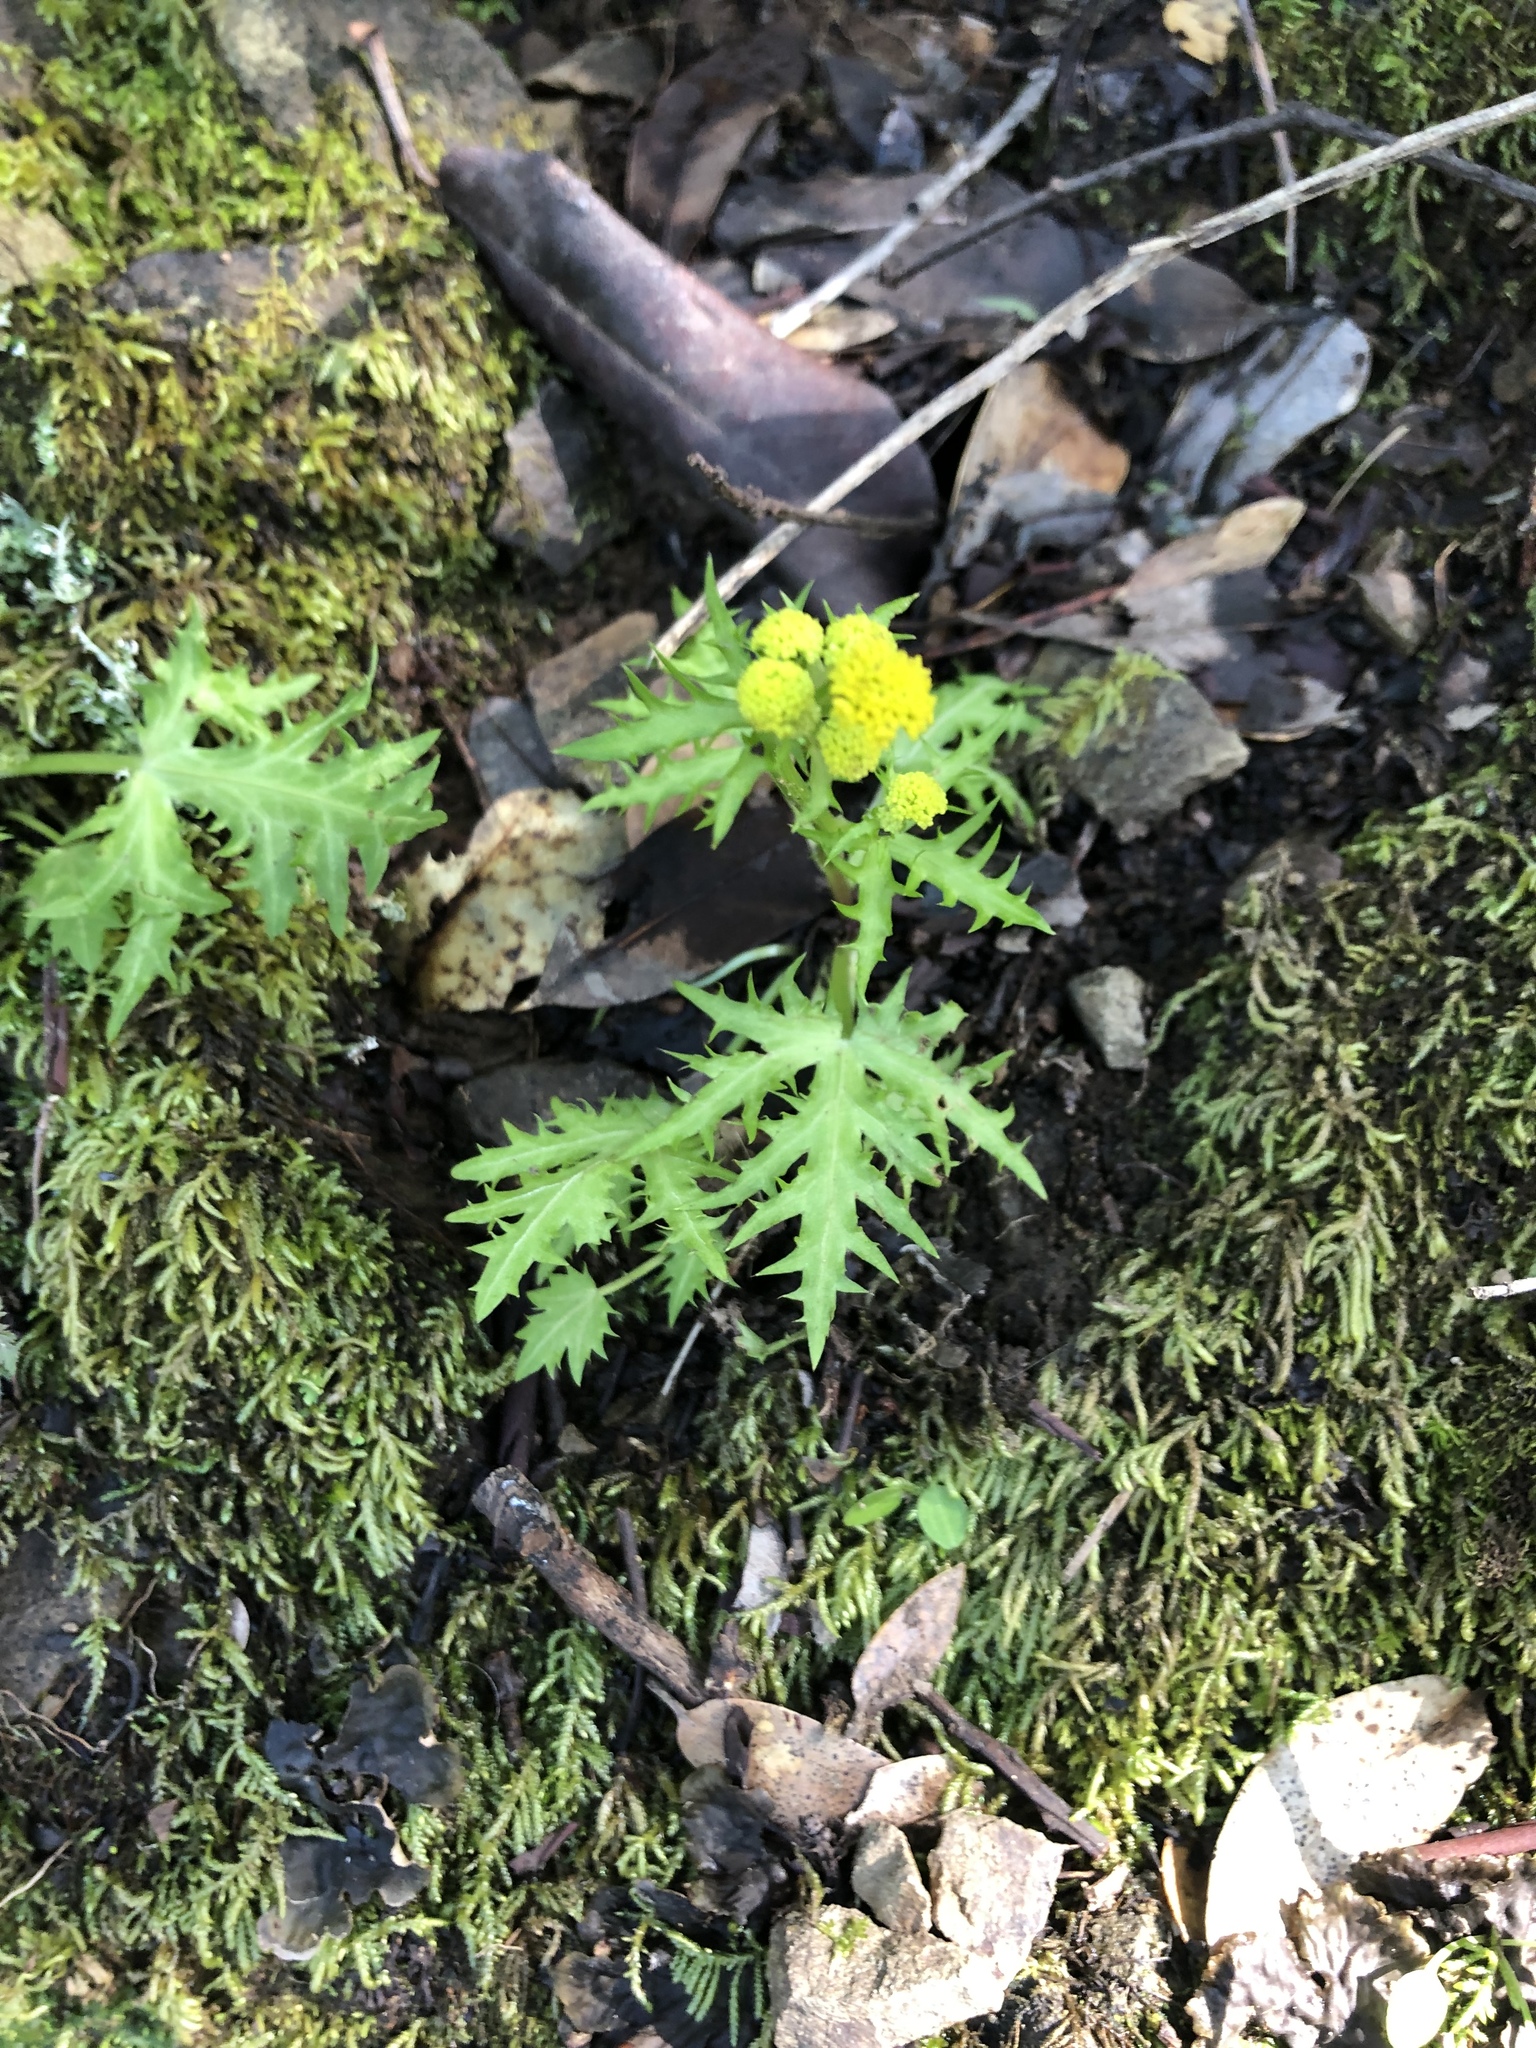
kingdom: Plantae
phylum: Tracheophyta
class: Magnoliopsida
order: Apiales
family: Apiaceae
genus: Sanicula
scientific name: Sanicula laciniata
